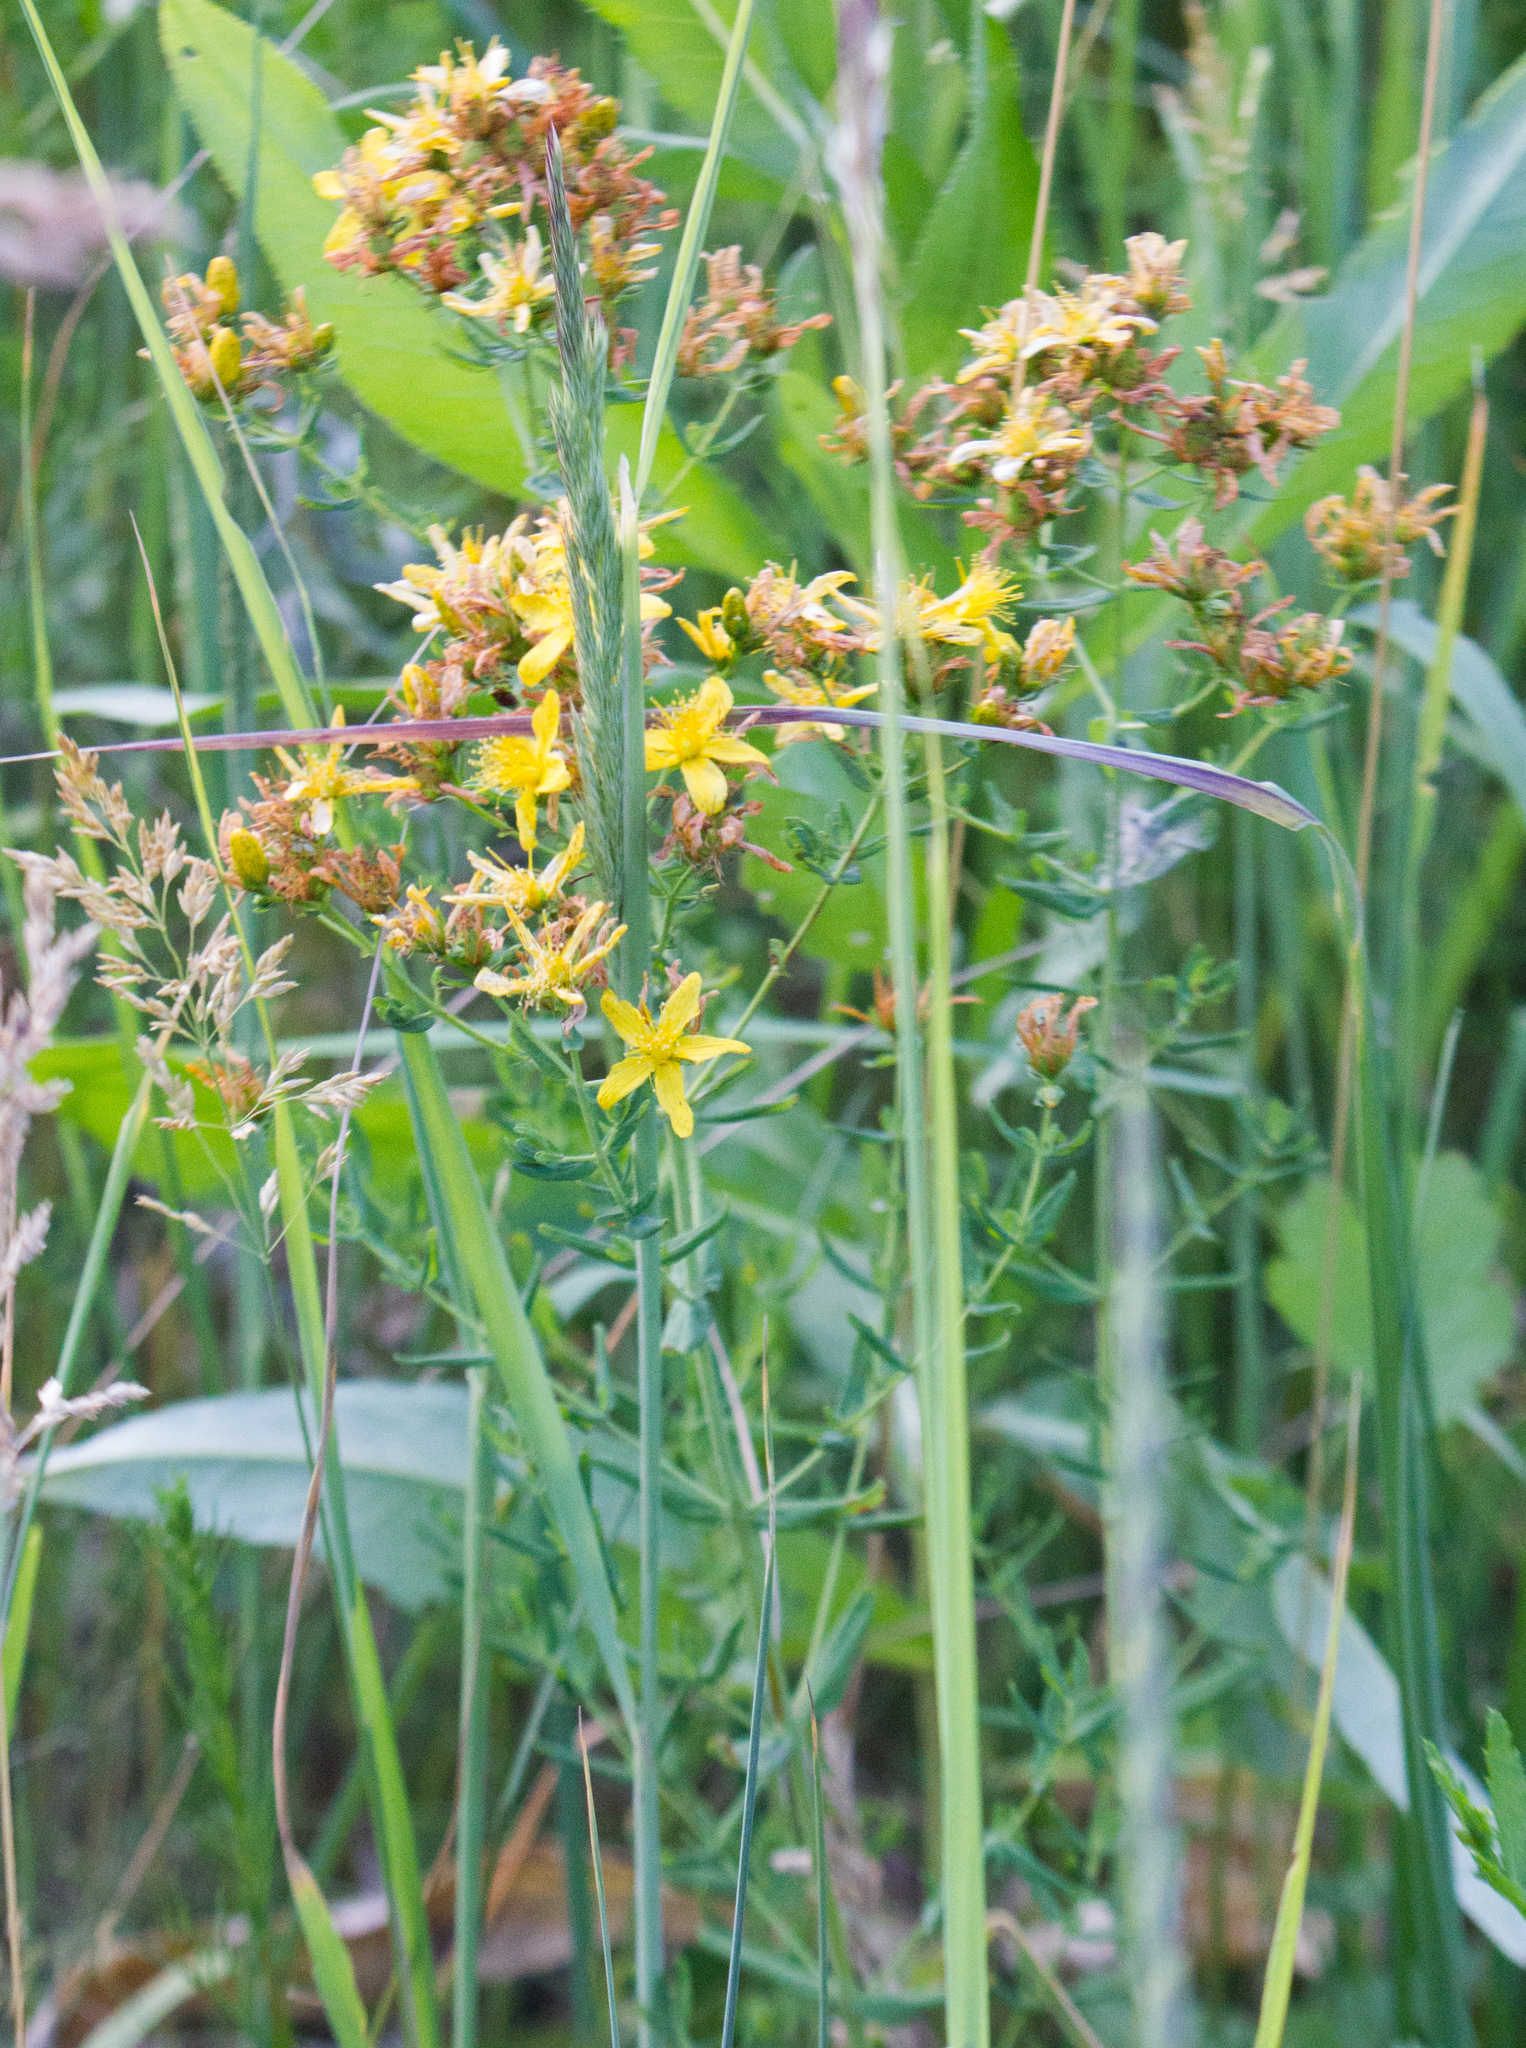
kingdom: Plantae
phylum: Tracheophyta
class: Magnoliopsida
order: Malpighiales
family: Hypericaceae
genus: Hypericum
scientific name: Hypericum perforatum
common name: Common st. johnswort
